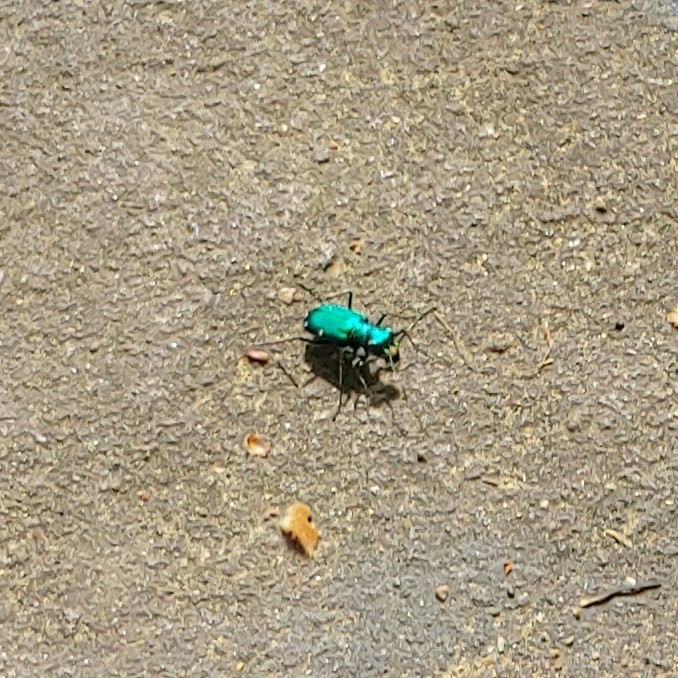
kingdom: Animalia
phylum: Arthropoda
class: Insecta
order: Coleoptera
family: Carabidae
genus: Cicindela
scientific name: Cicindela sexguttata
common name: Six-spotted tiger beetle
